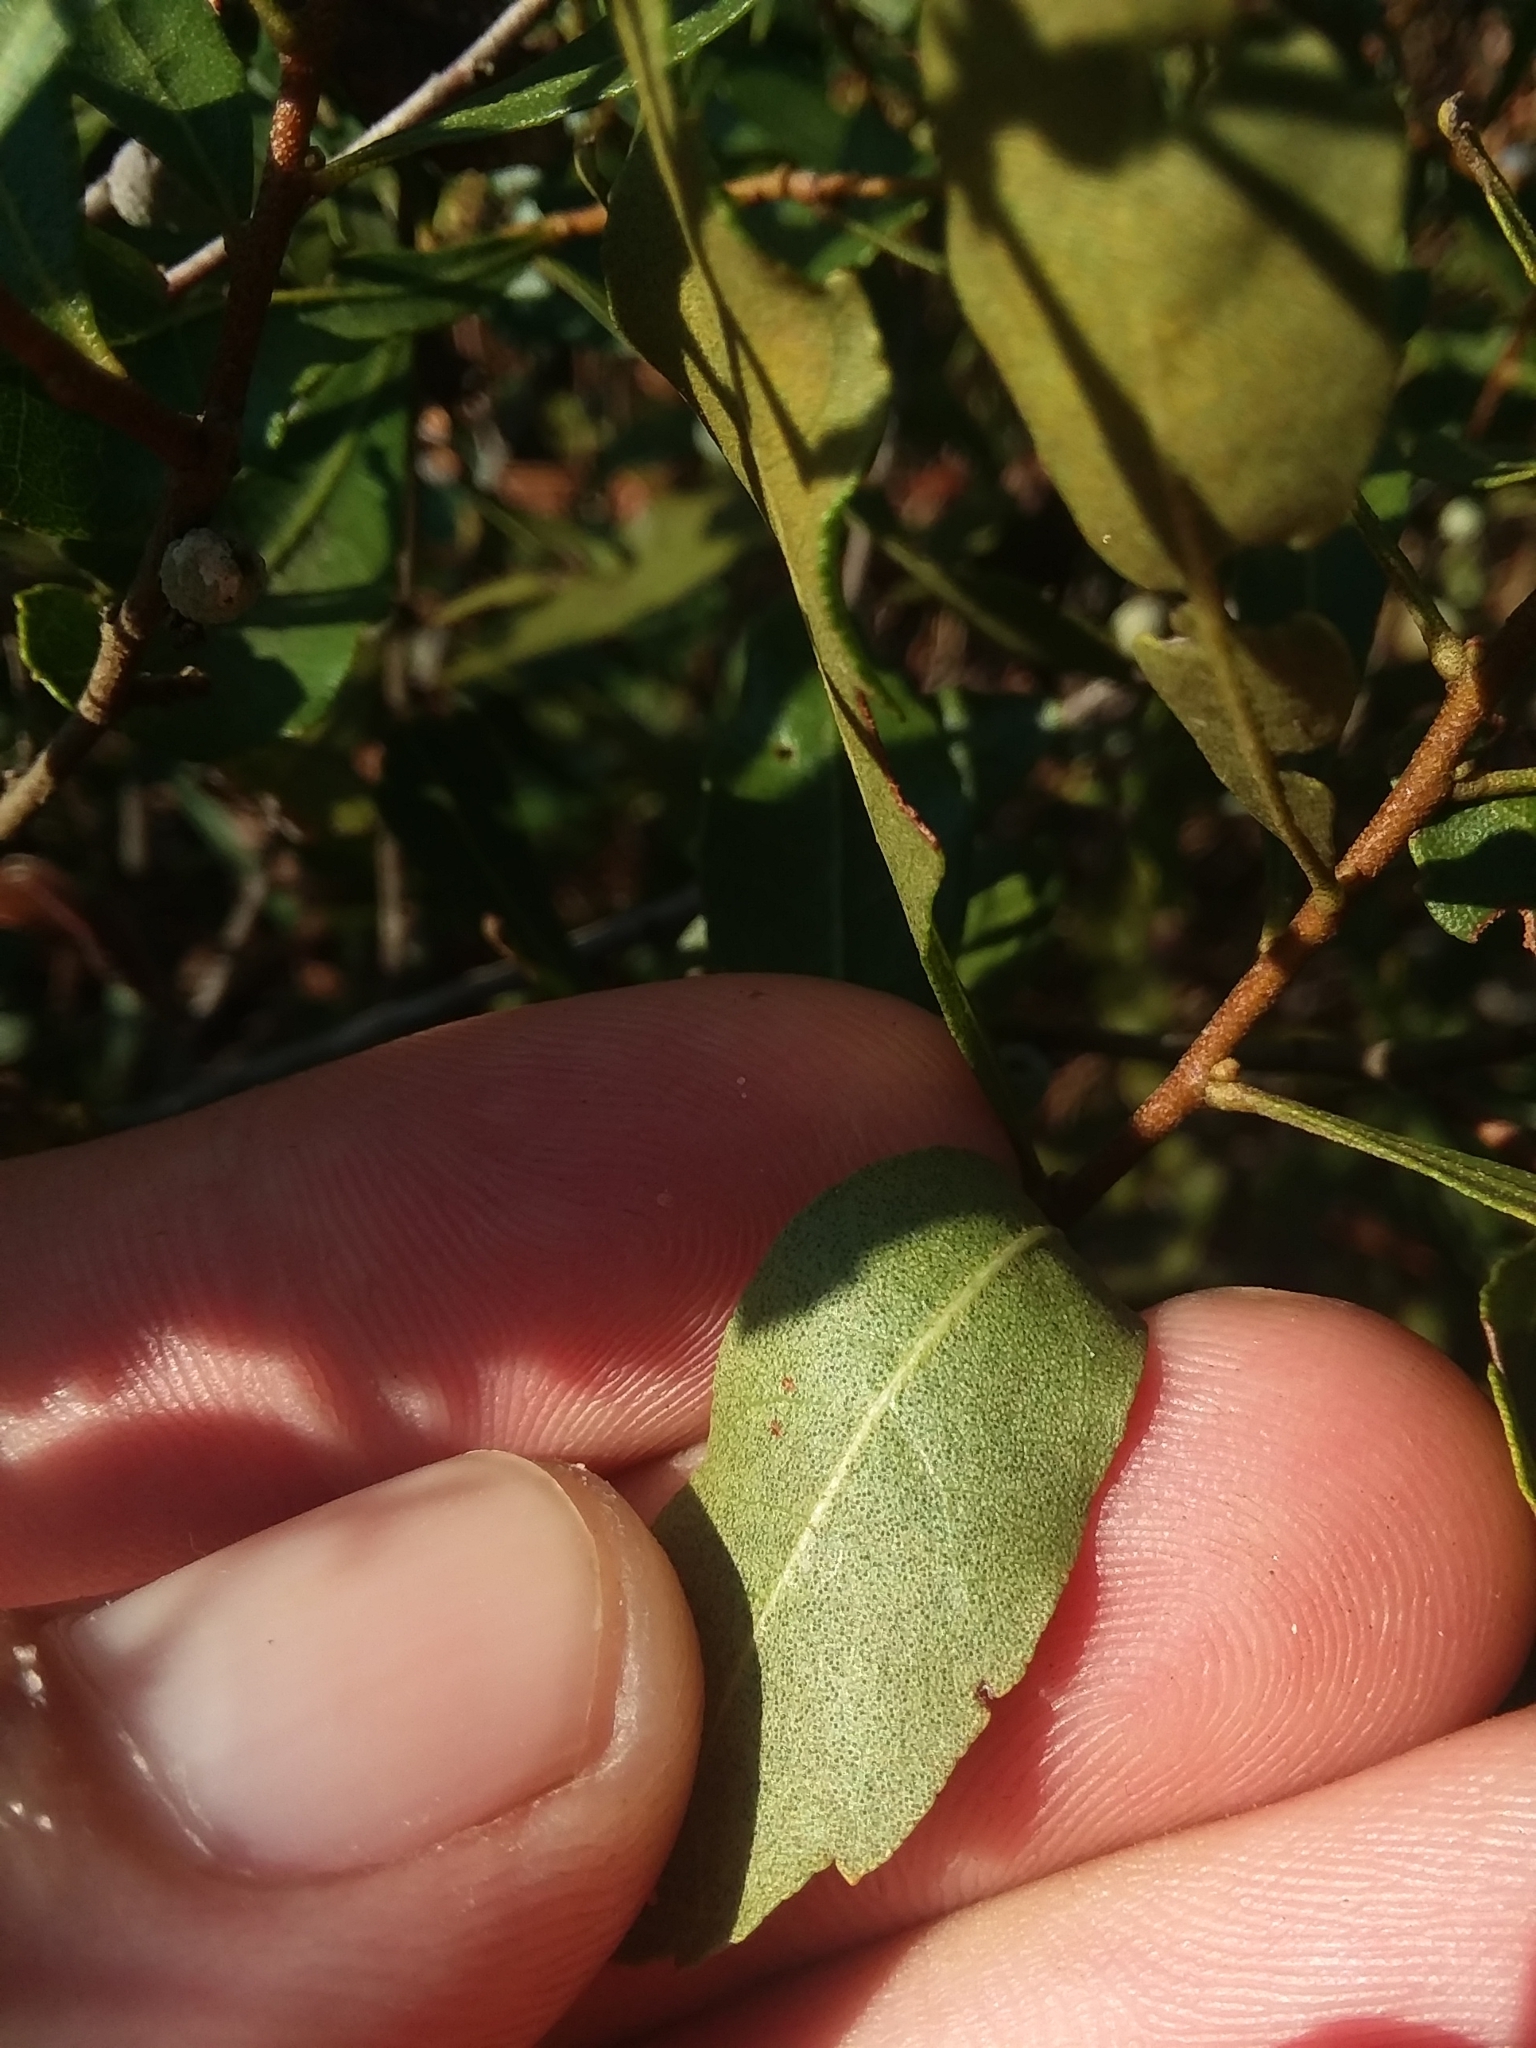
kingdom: Plantae
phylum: Tracheophyta
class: Magnoliopsida
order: Fagales
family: Myricaceae
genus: Morella
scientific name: Morella cerifera
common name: Wax myrtle
